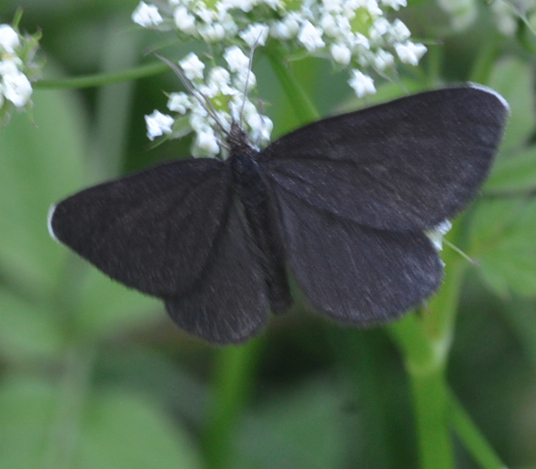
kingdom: Animalia
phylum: Arthropoda
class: Insecta
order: Lepidoptera
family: Geometridae
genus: Odezia
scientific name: Odezia atrata
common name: Chimney sweeper
